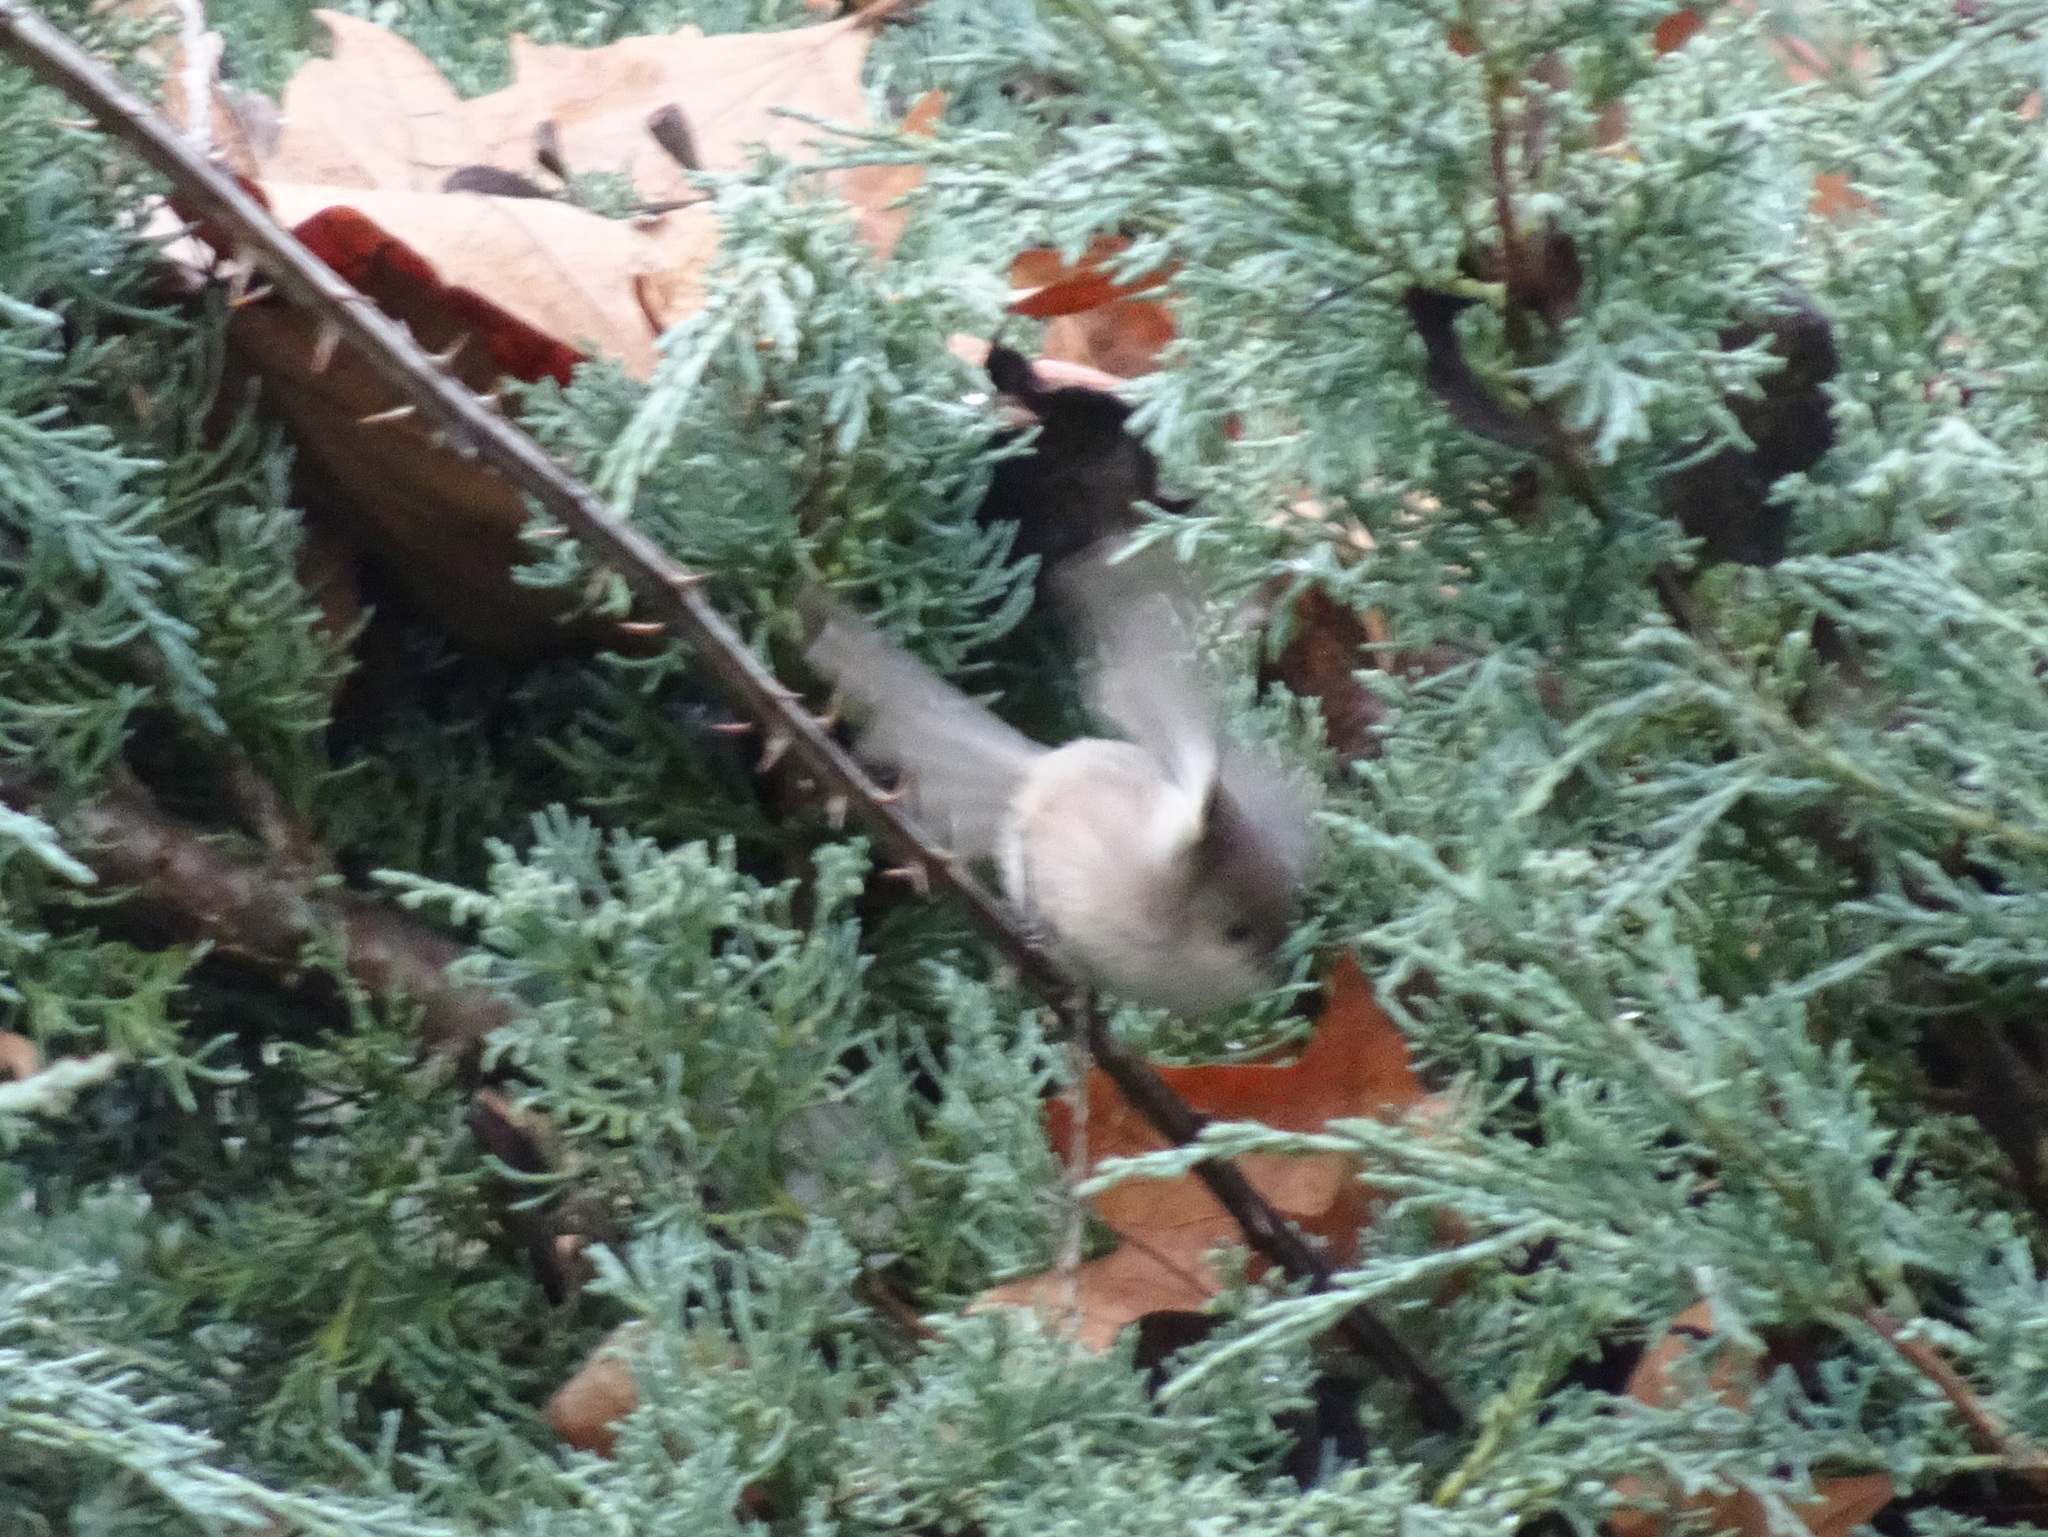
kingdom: Animalia
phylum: Chordata
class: Aves
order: Passeriformes
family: Aegithalidae
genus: Psaltriparus
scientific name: Psaltriparus minimus
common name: American bushtit
